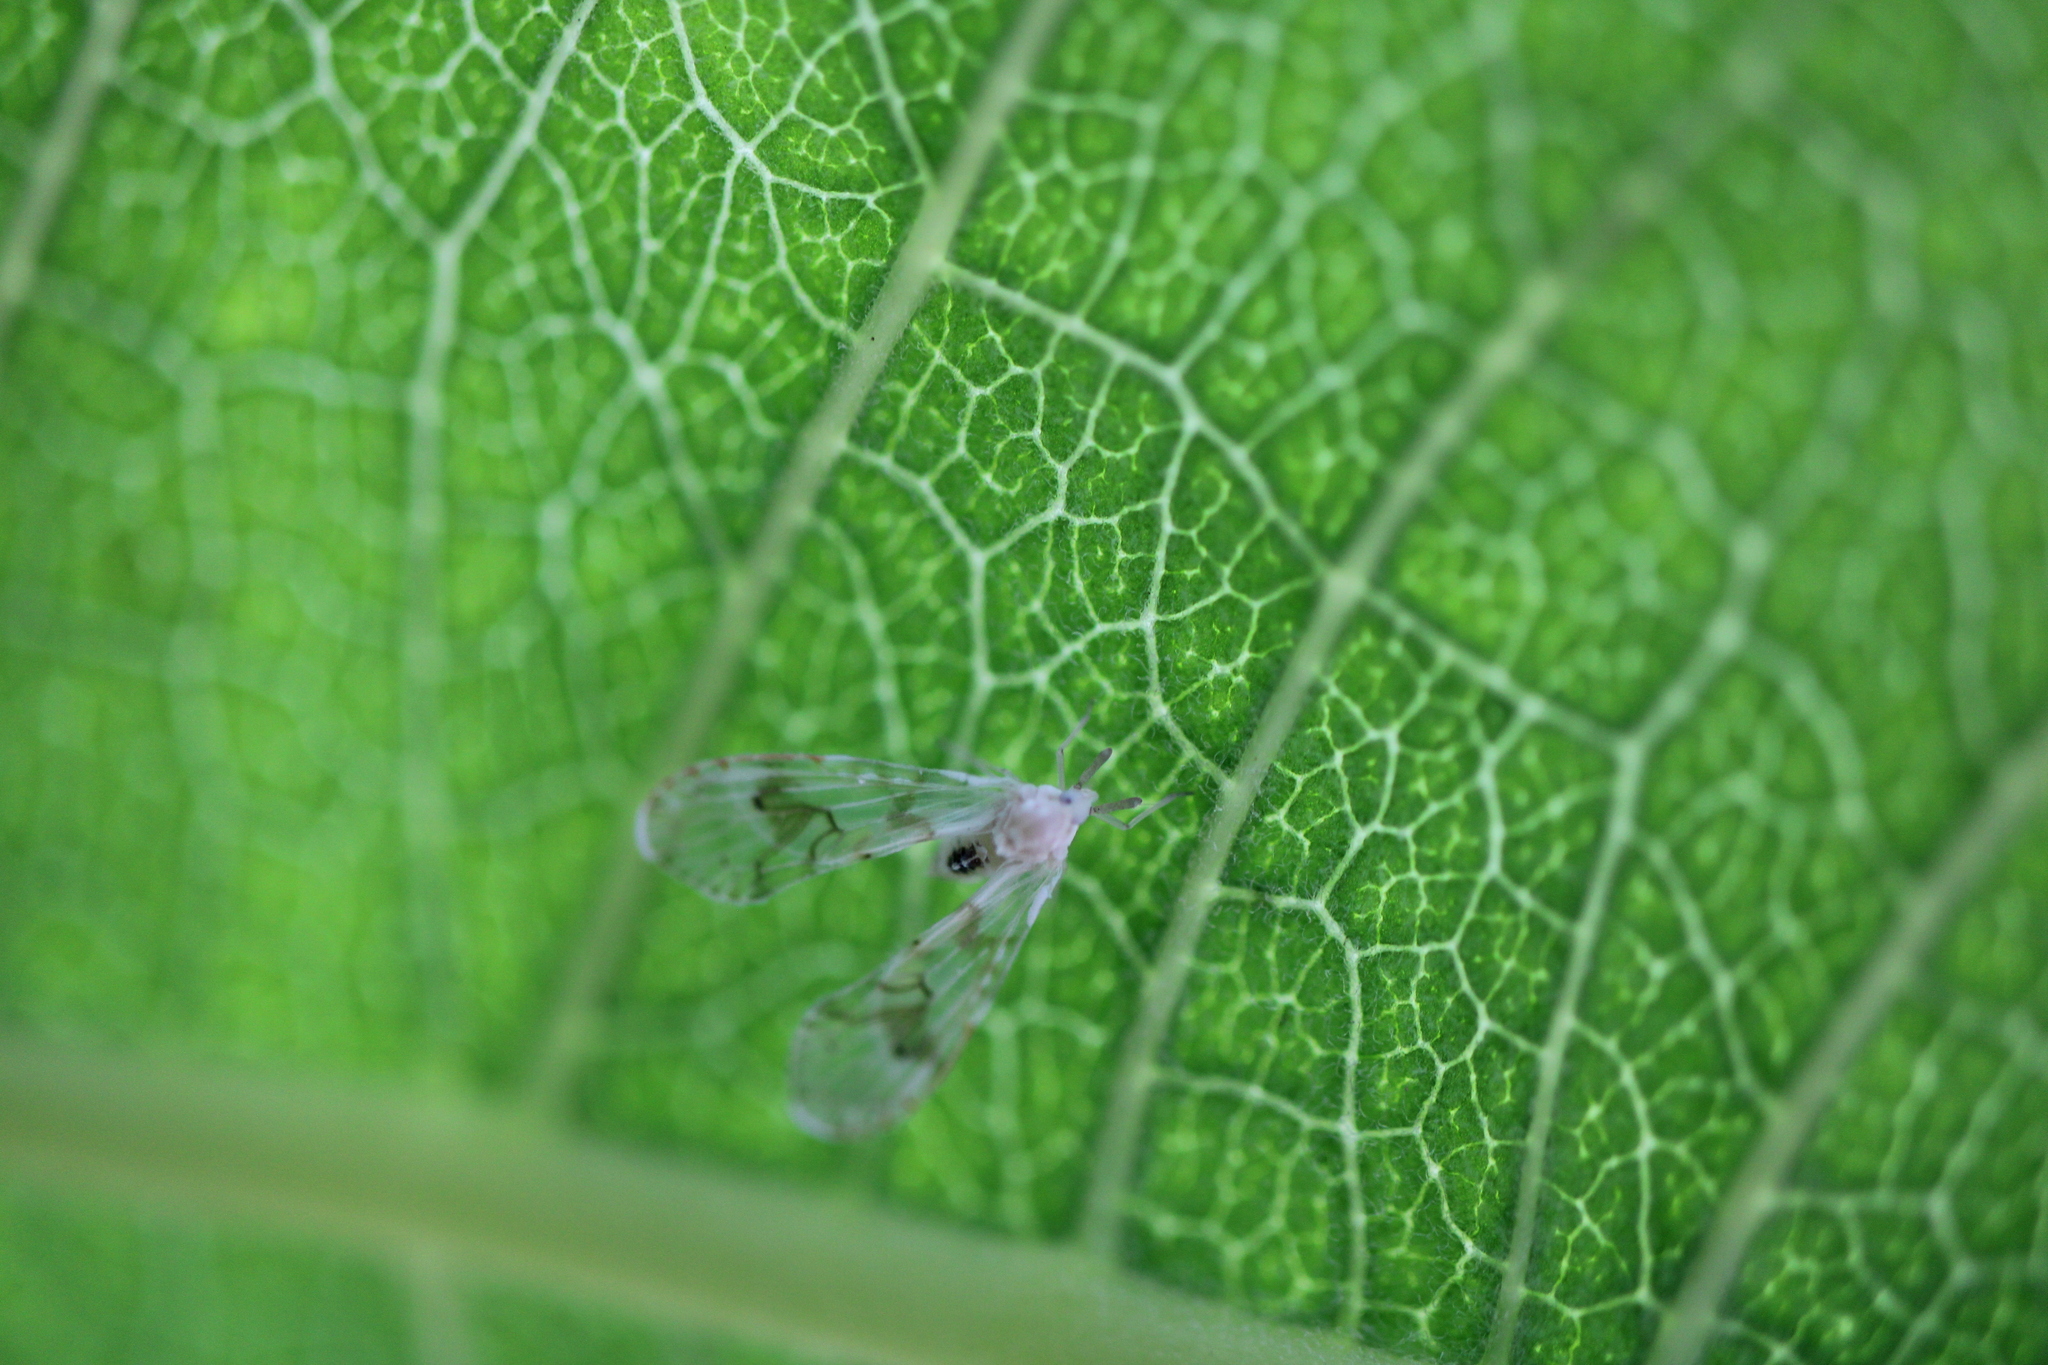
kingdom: Animalia
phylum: Arthropoda
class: Insecta
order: Hemiptera
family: Derbidae
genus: Anotia
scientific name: Anotia robertsonii
